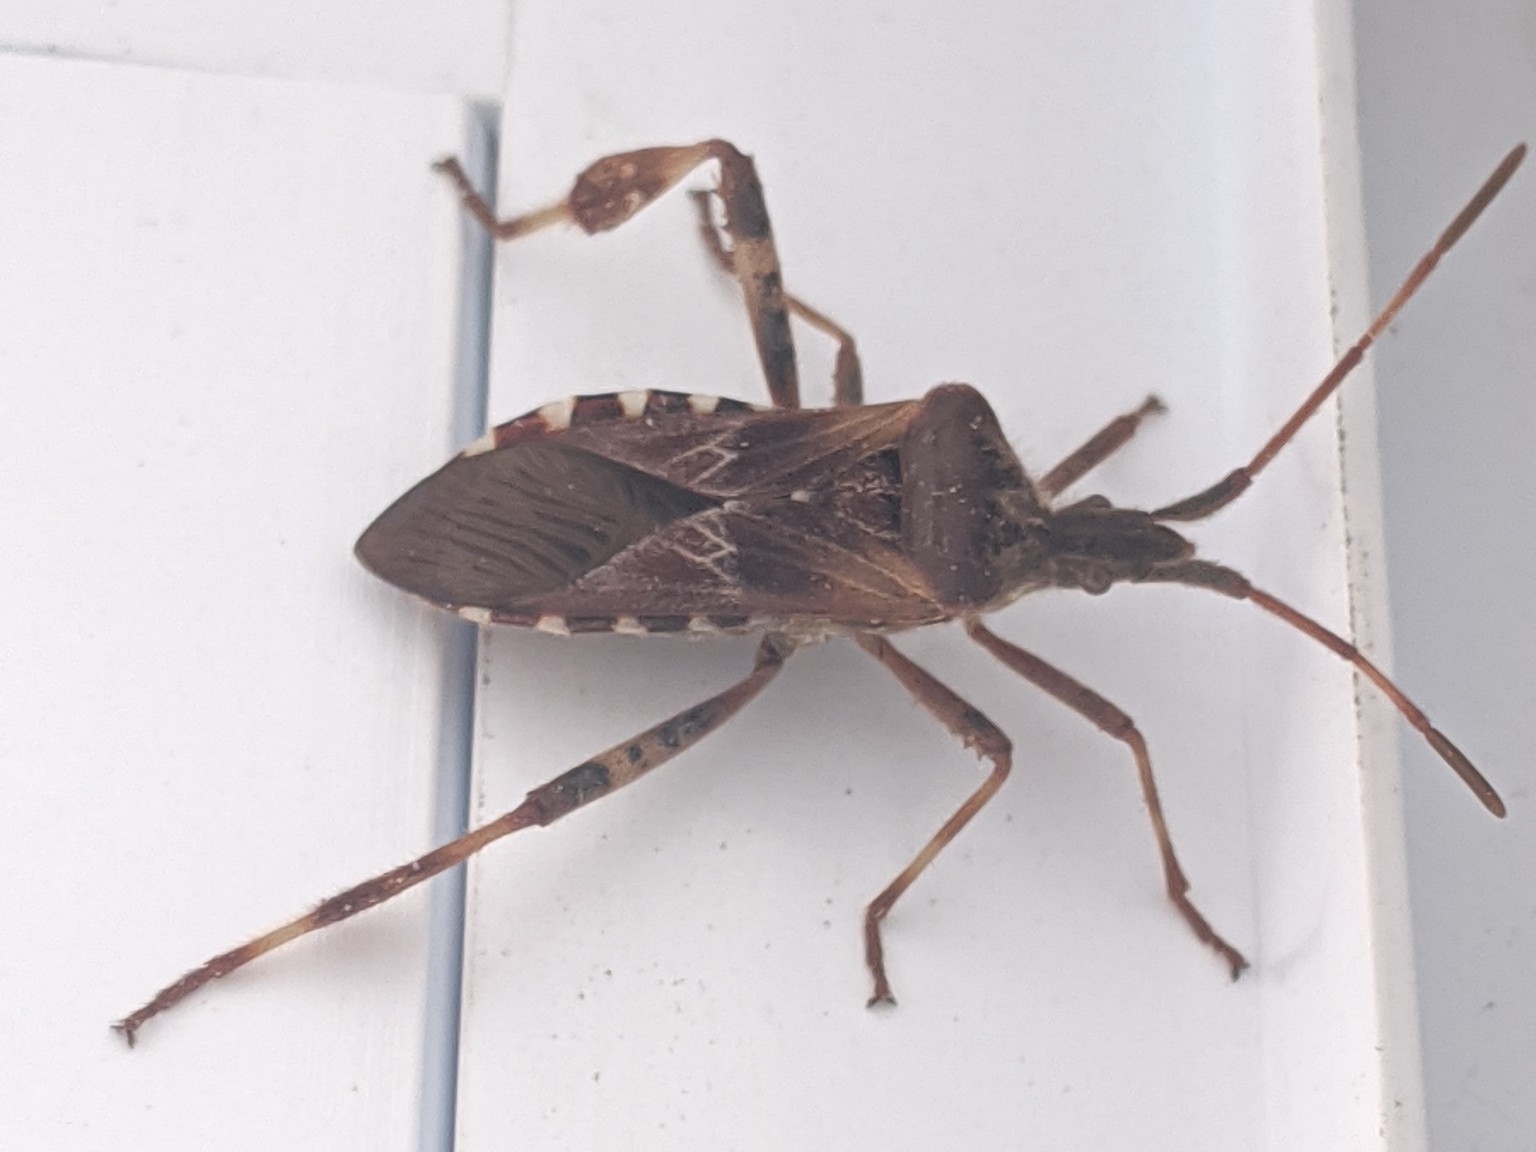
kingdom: Animalia
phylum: Arthropoda
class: Insecta
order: Hemiptera
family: Coreidae
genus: Leptoglossus
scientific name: Leptoglossus occidentalis
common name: Western conifer-seed bug
